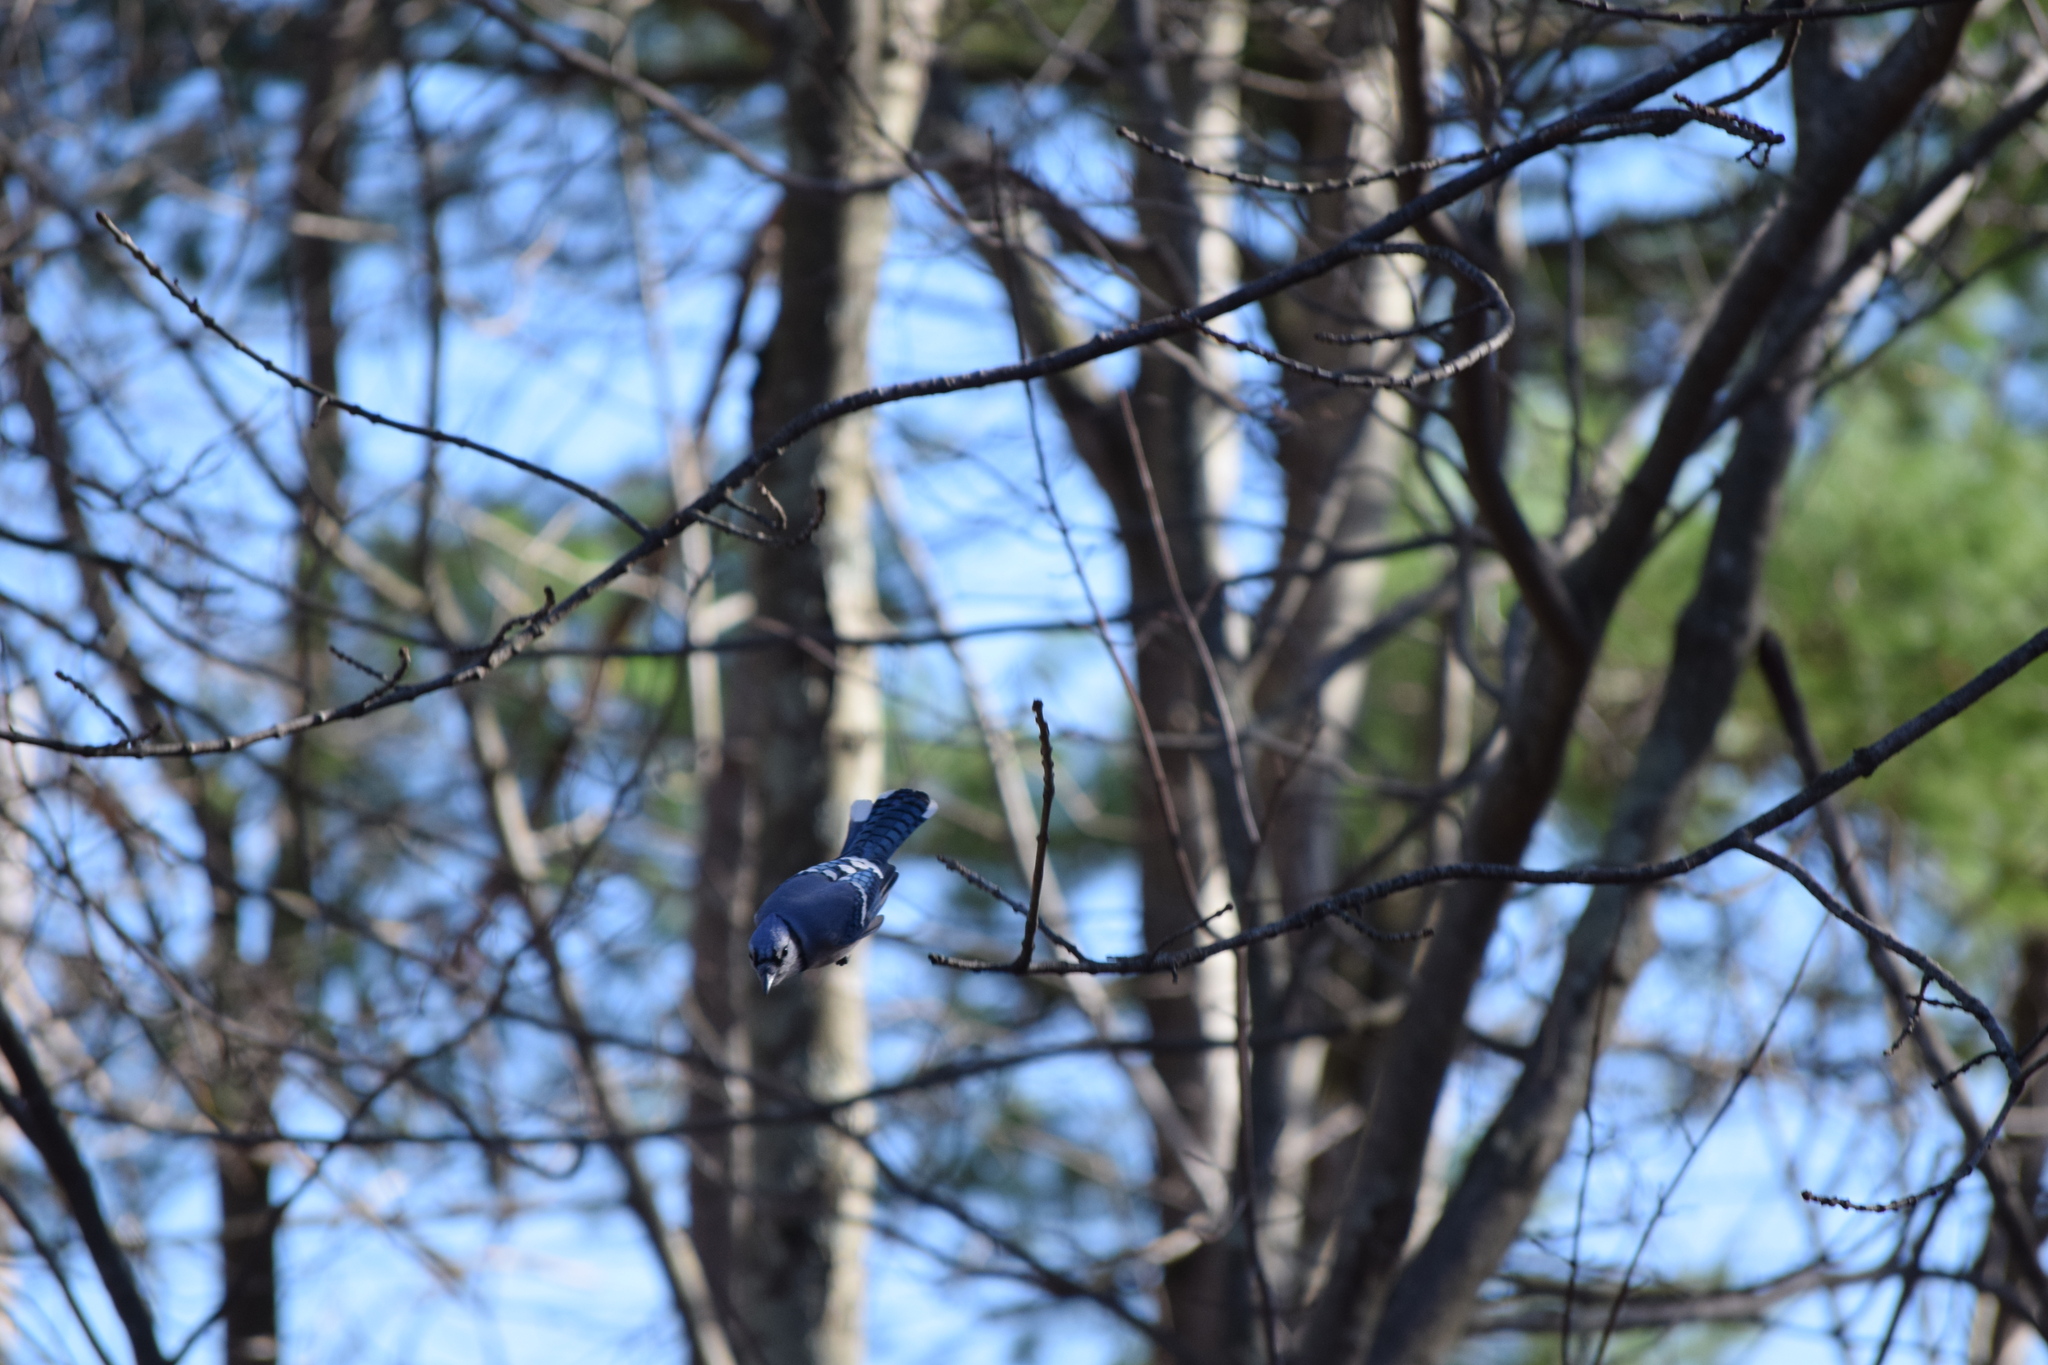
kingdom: Animalia
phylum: Chordata
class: Aves
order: Passeriformes
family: Corvidae
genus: Cyanocitta
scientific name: Cyanocitta cristata
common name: Blue jay
